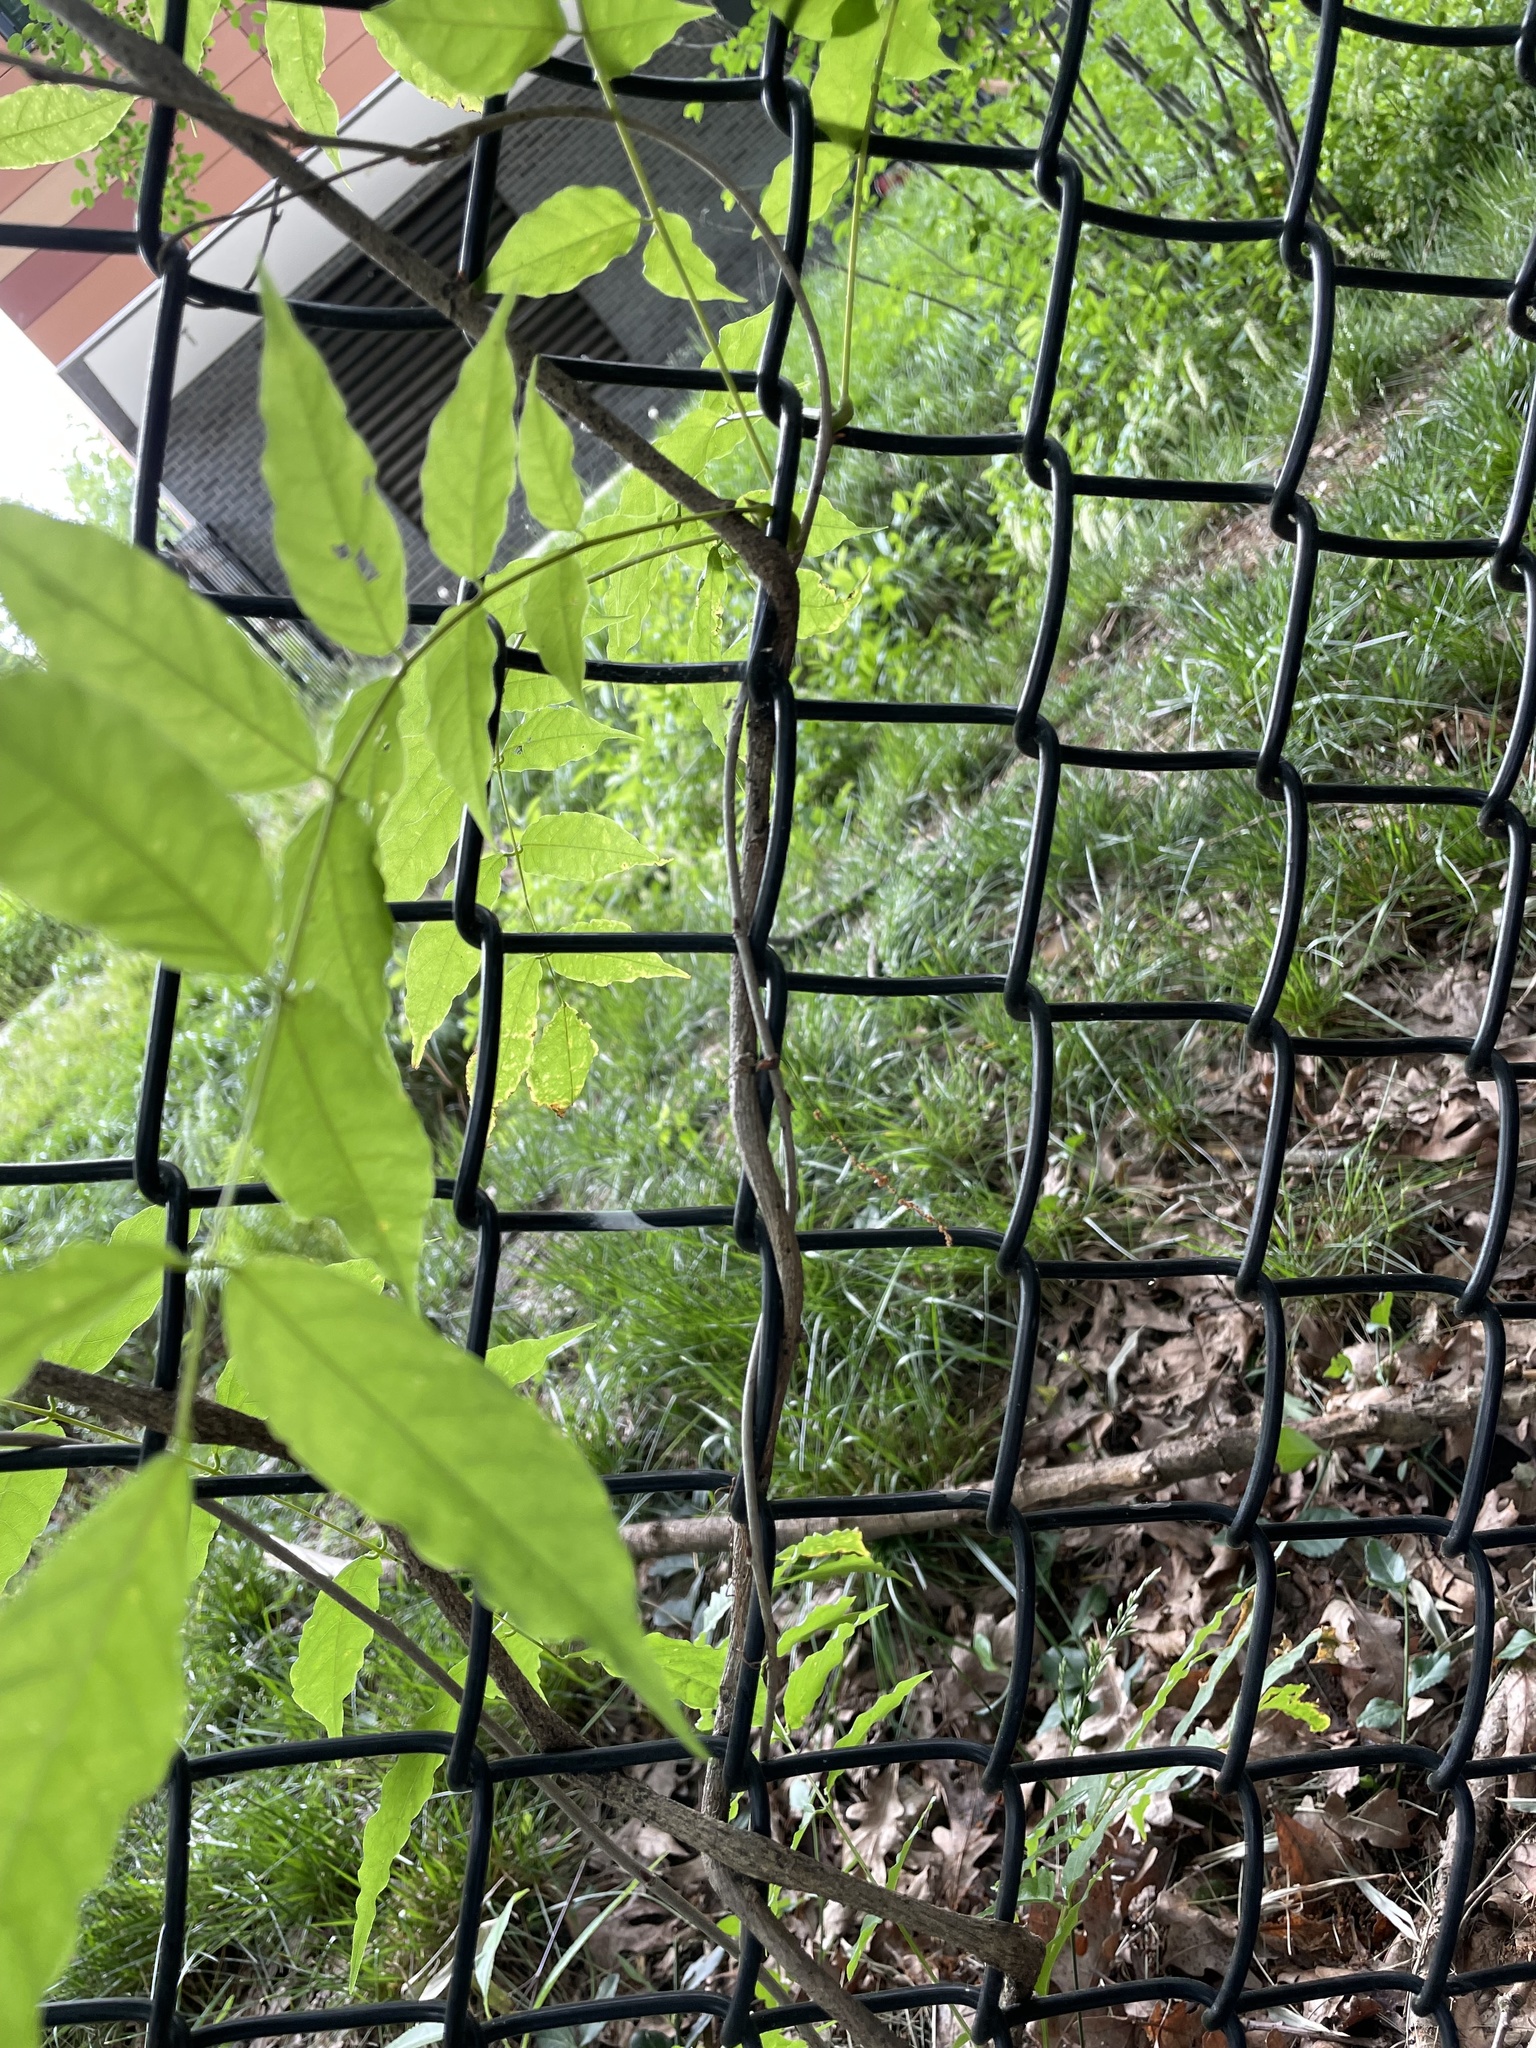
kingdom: Plantae
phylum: Tracheophyta
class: Magnoliopsida
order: Fabales
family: Fabaceae
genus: Wisteria
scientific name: Wisteria floribunda
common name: Japanese wisteria
